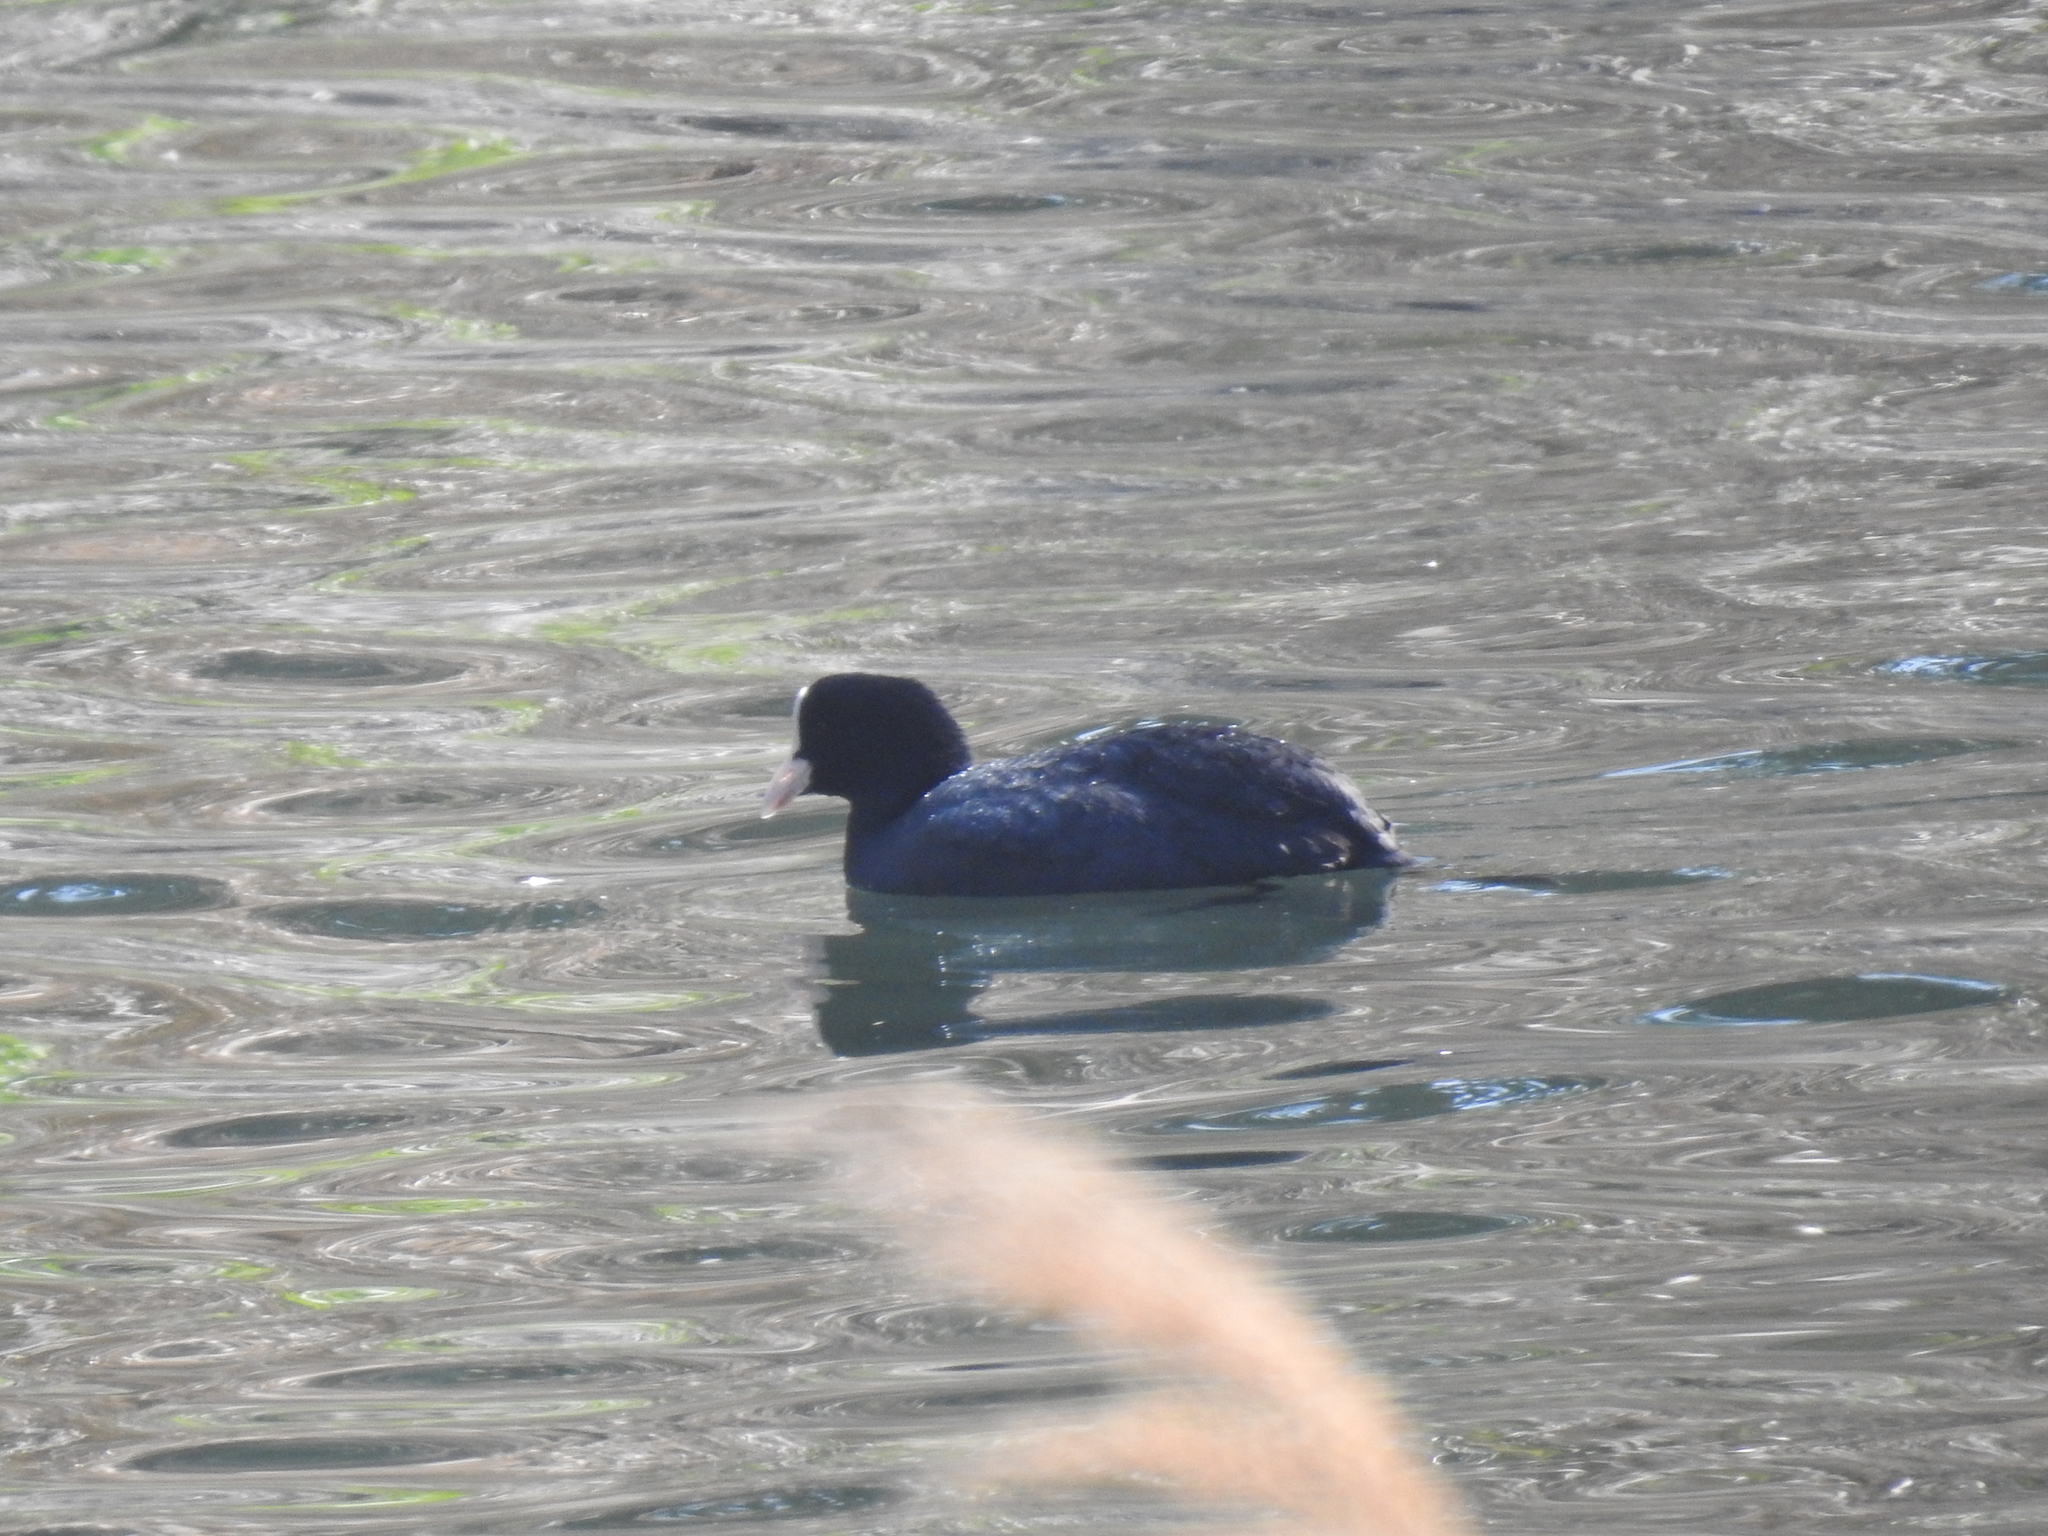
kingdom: Animalia
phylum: Chordata
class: Aves
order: Gruiformes
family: Rallidae
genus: Fulica
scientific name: Fulica atra
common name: Eurasian coot
